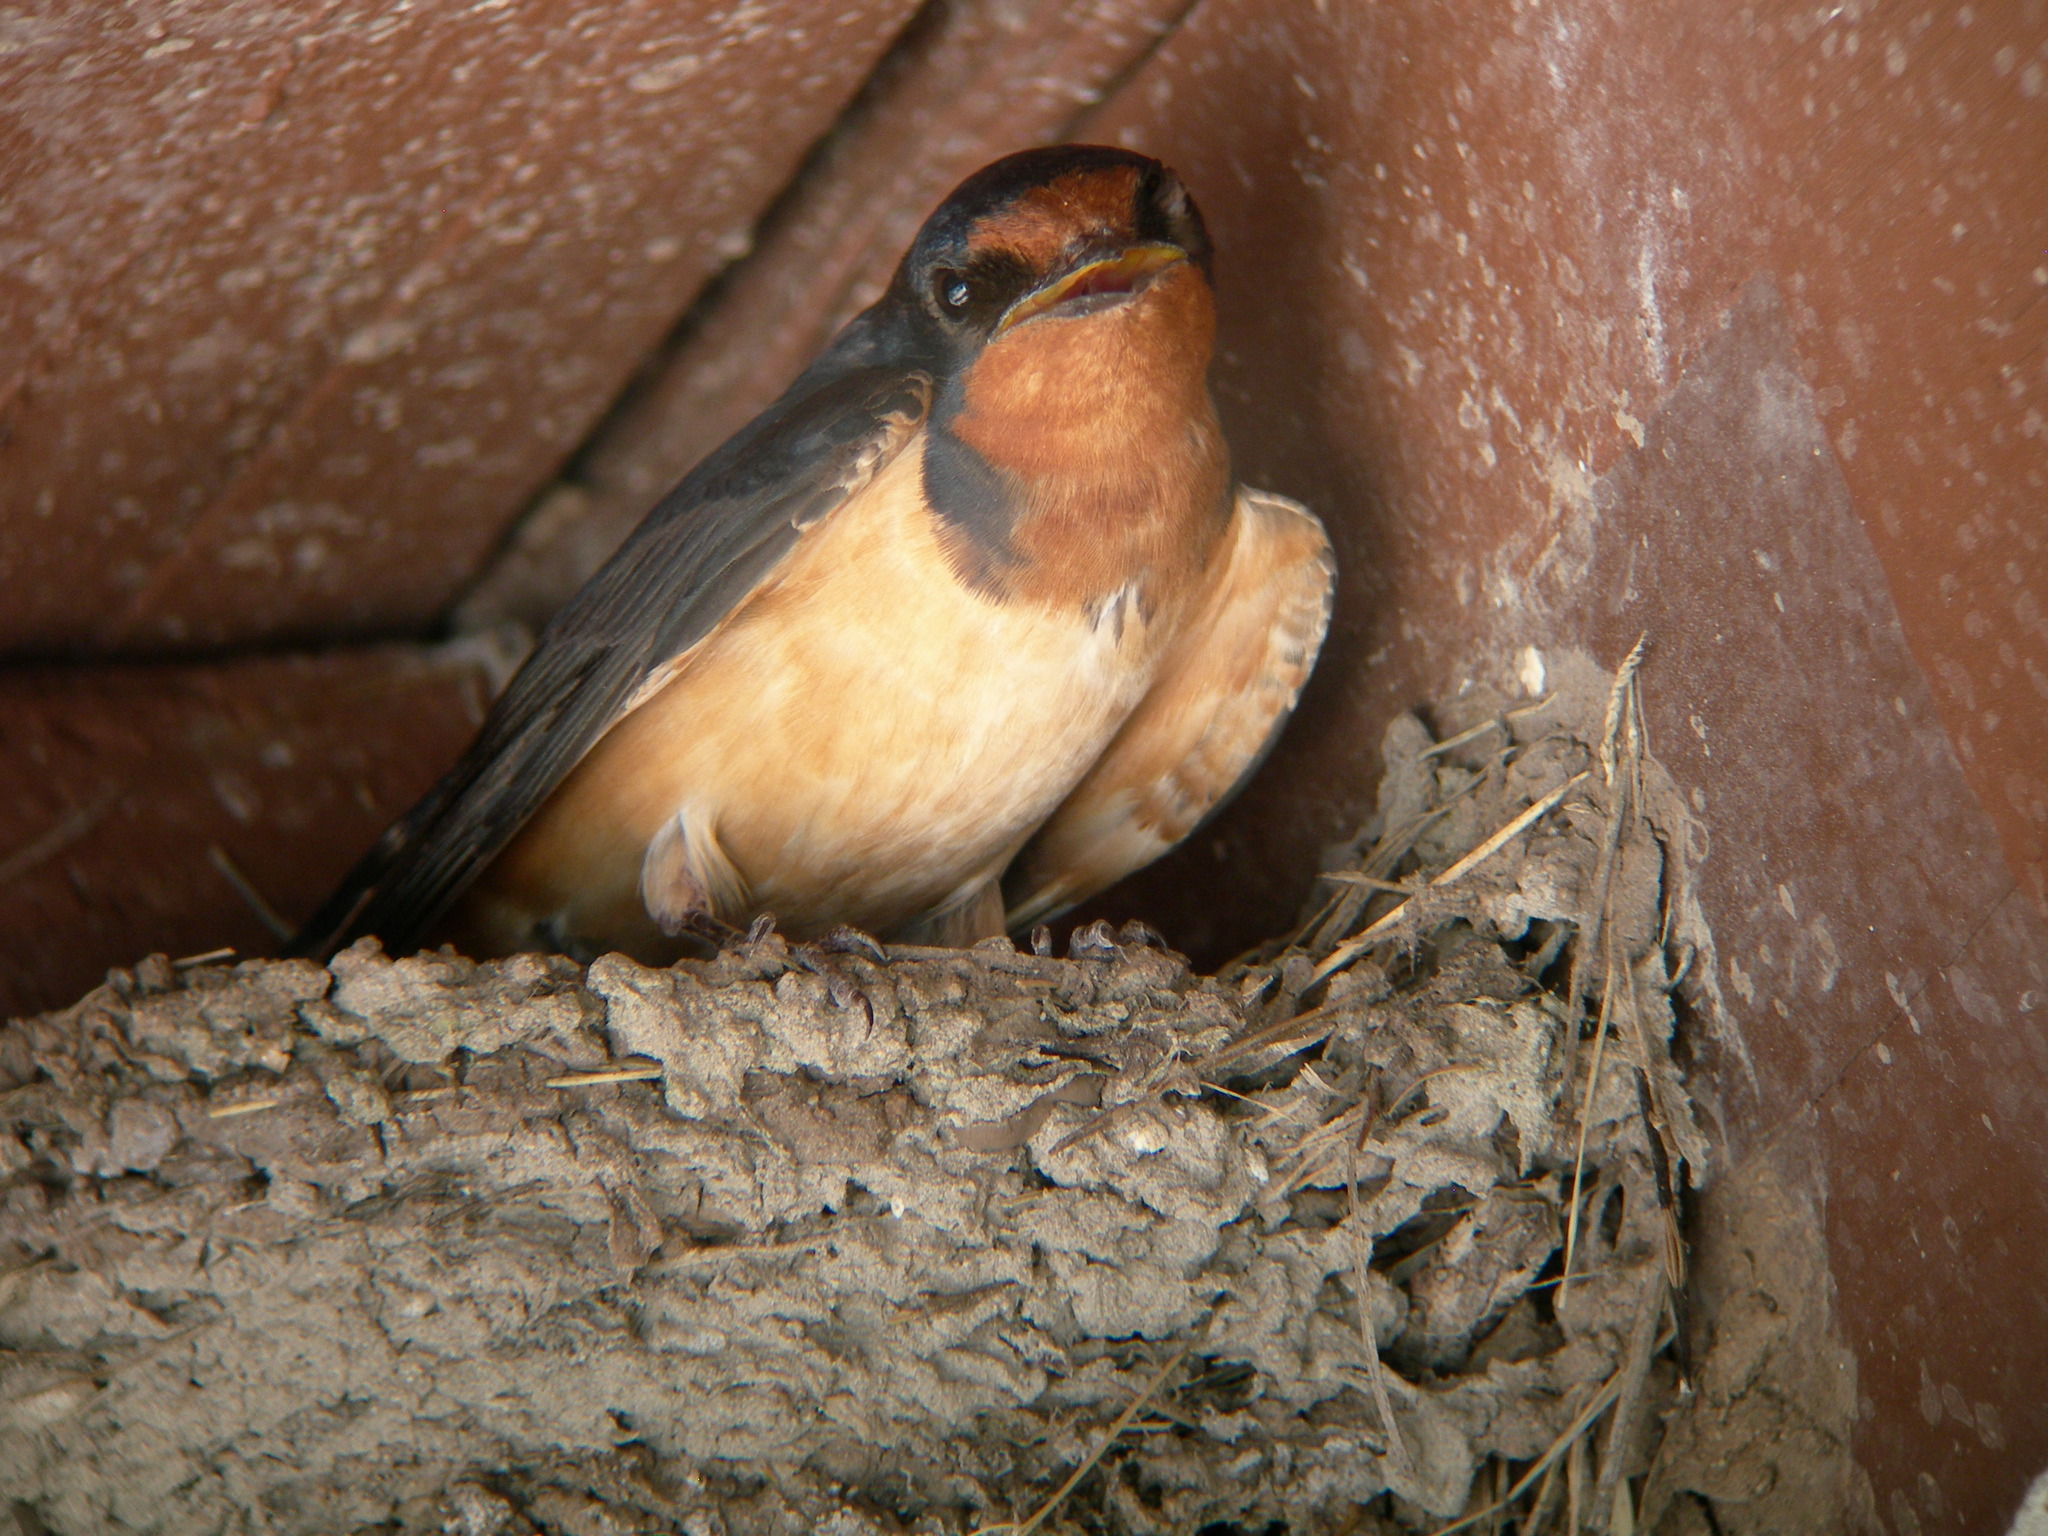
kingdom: Animalia
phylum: Chordata
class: Aves
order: Passeriformes
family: Hirundinidae
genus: Hirundo
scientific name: Hirundo rustica
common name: Barn swallow
